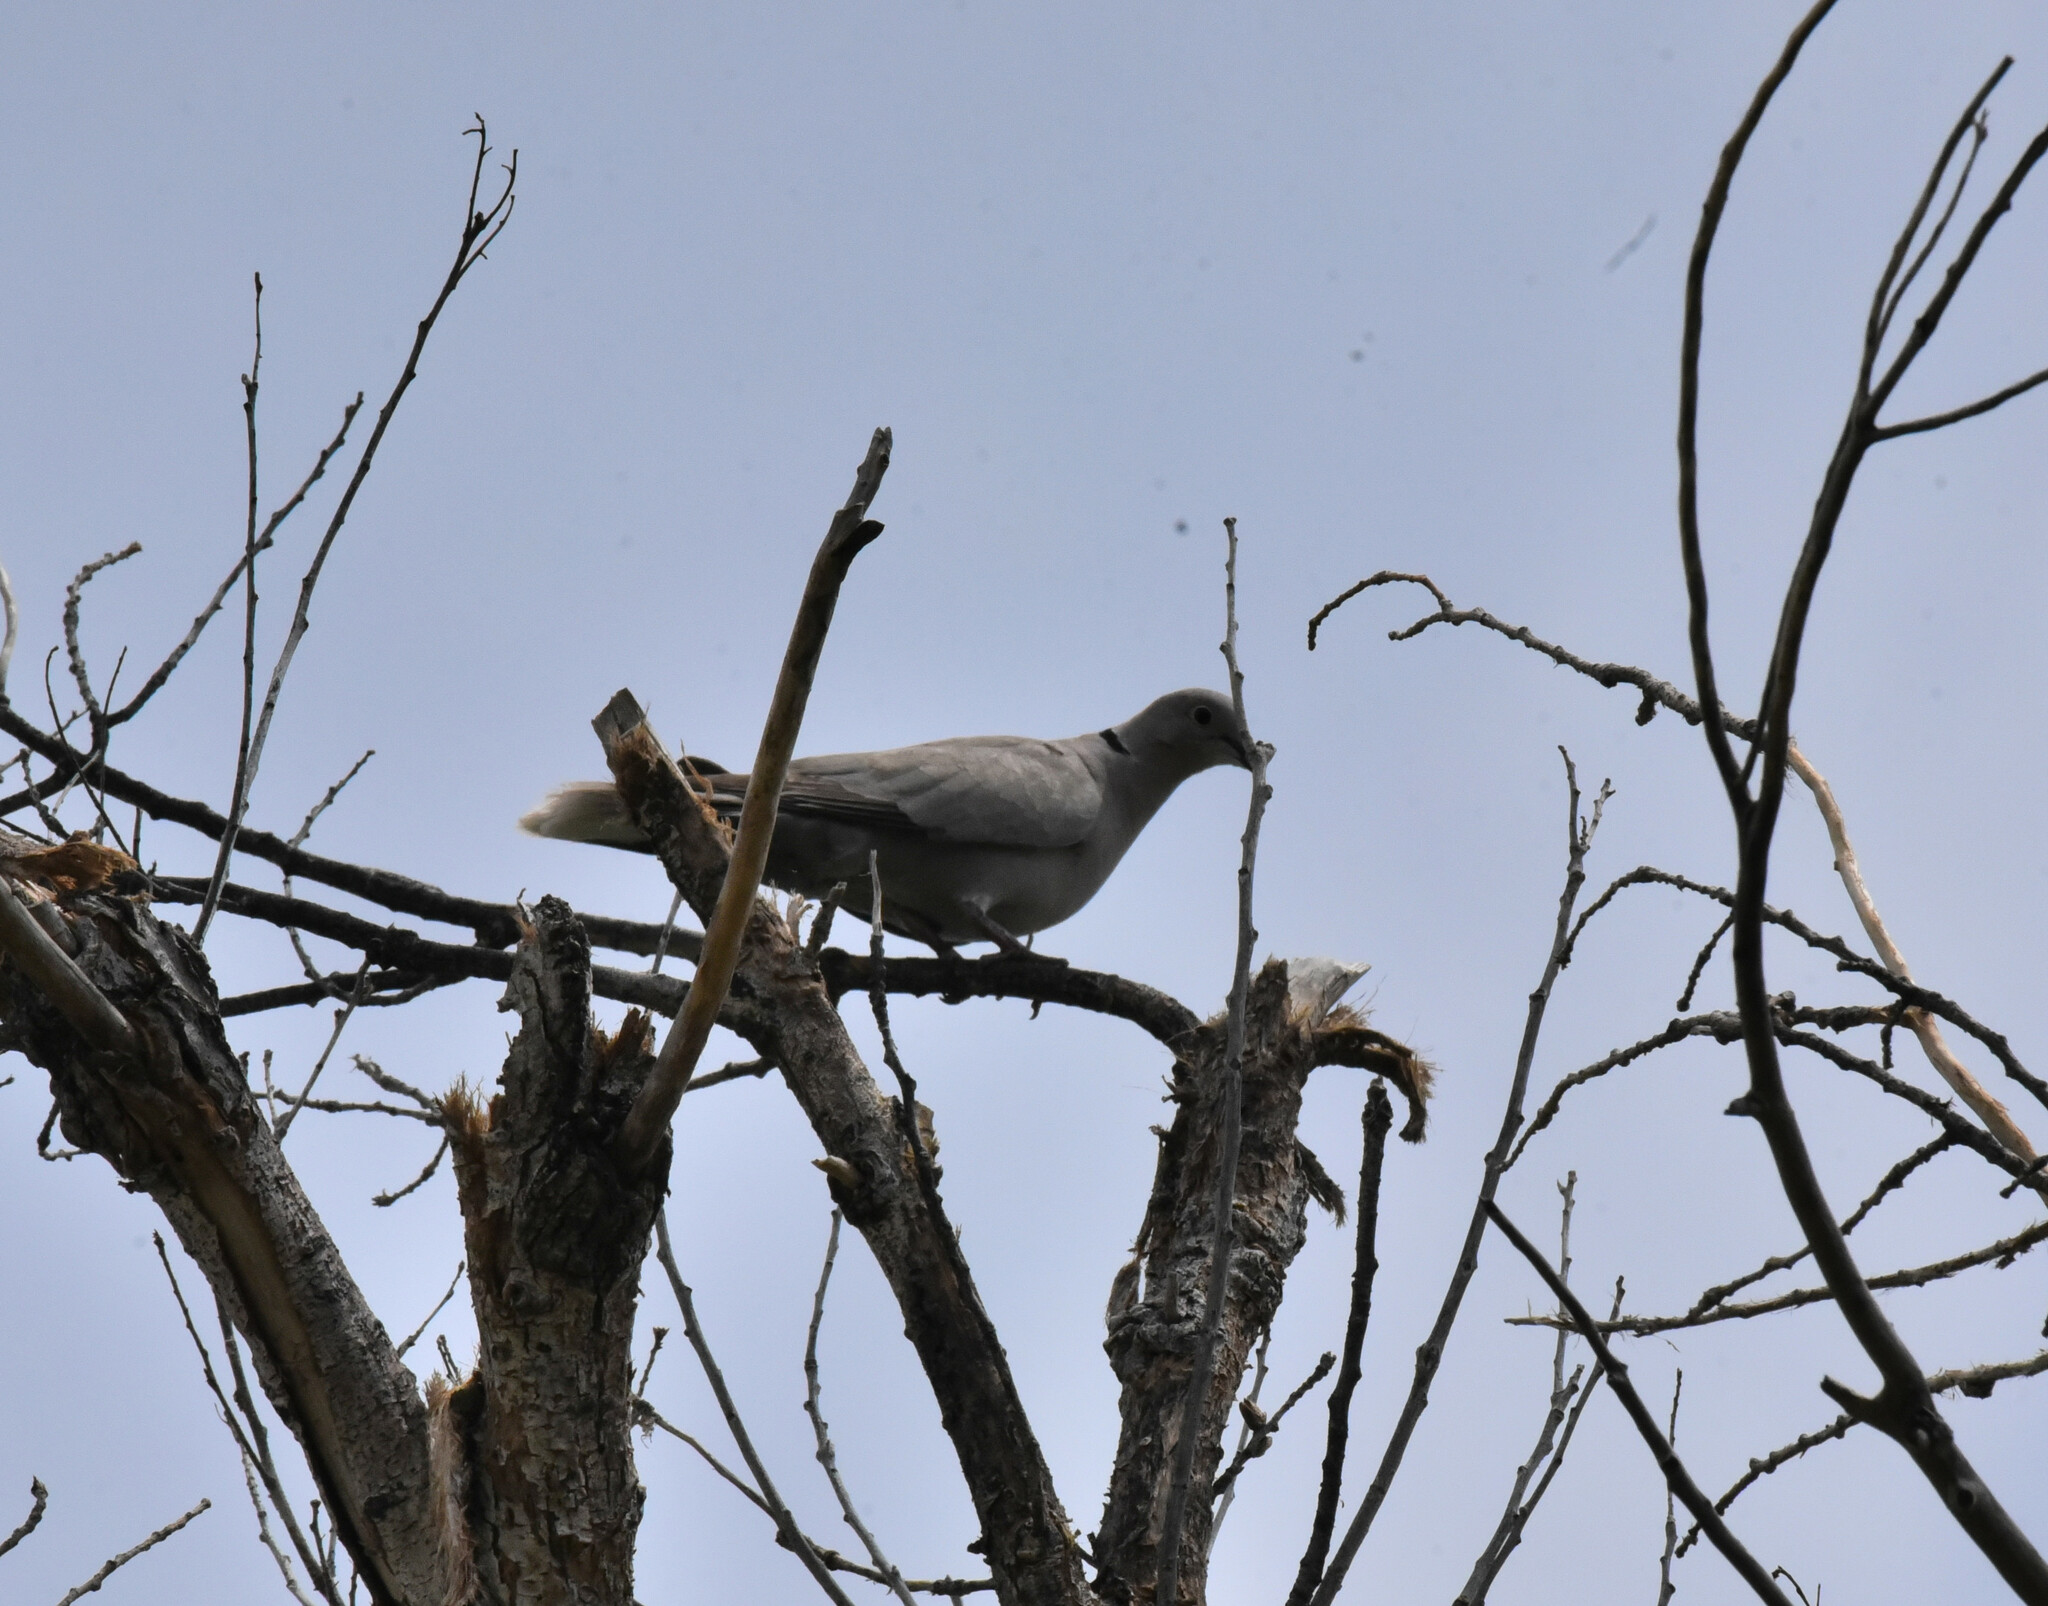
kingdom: Animalia
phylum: Chordata
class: Aves
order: Columbiformes
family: Columbidae
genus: Streptopelia
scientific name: Streptopelia decaocto
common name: Eurasian collared dove
